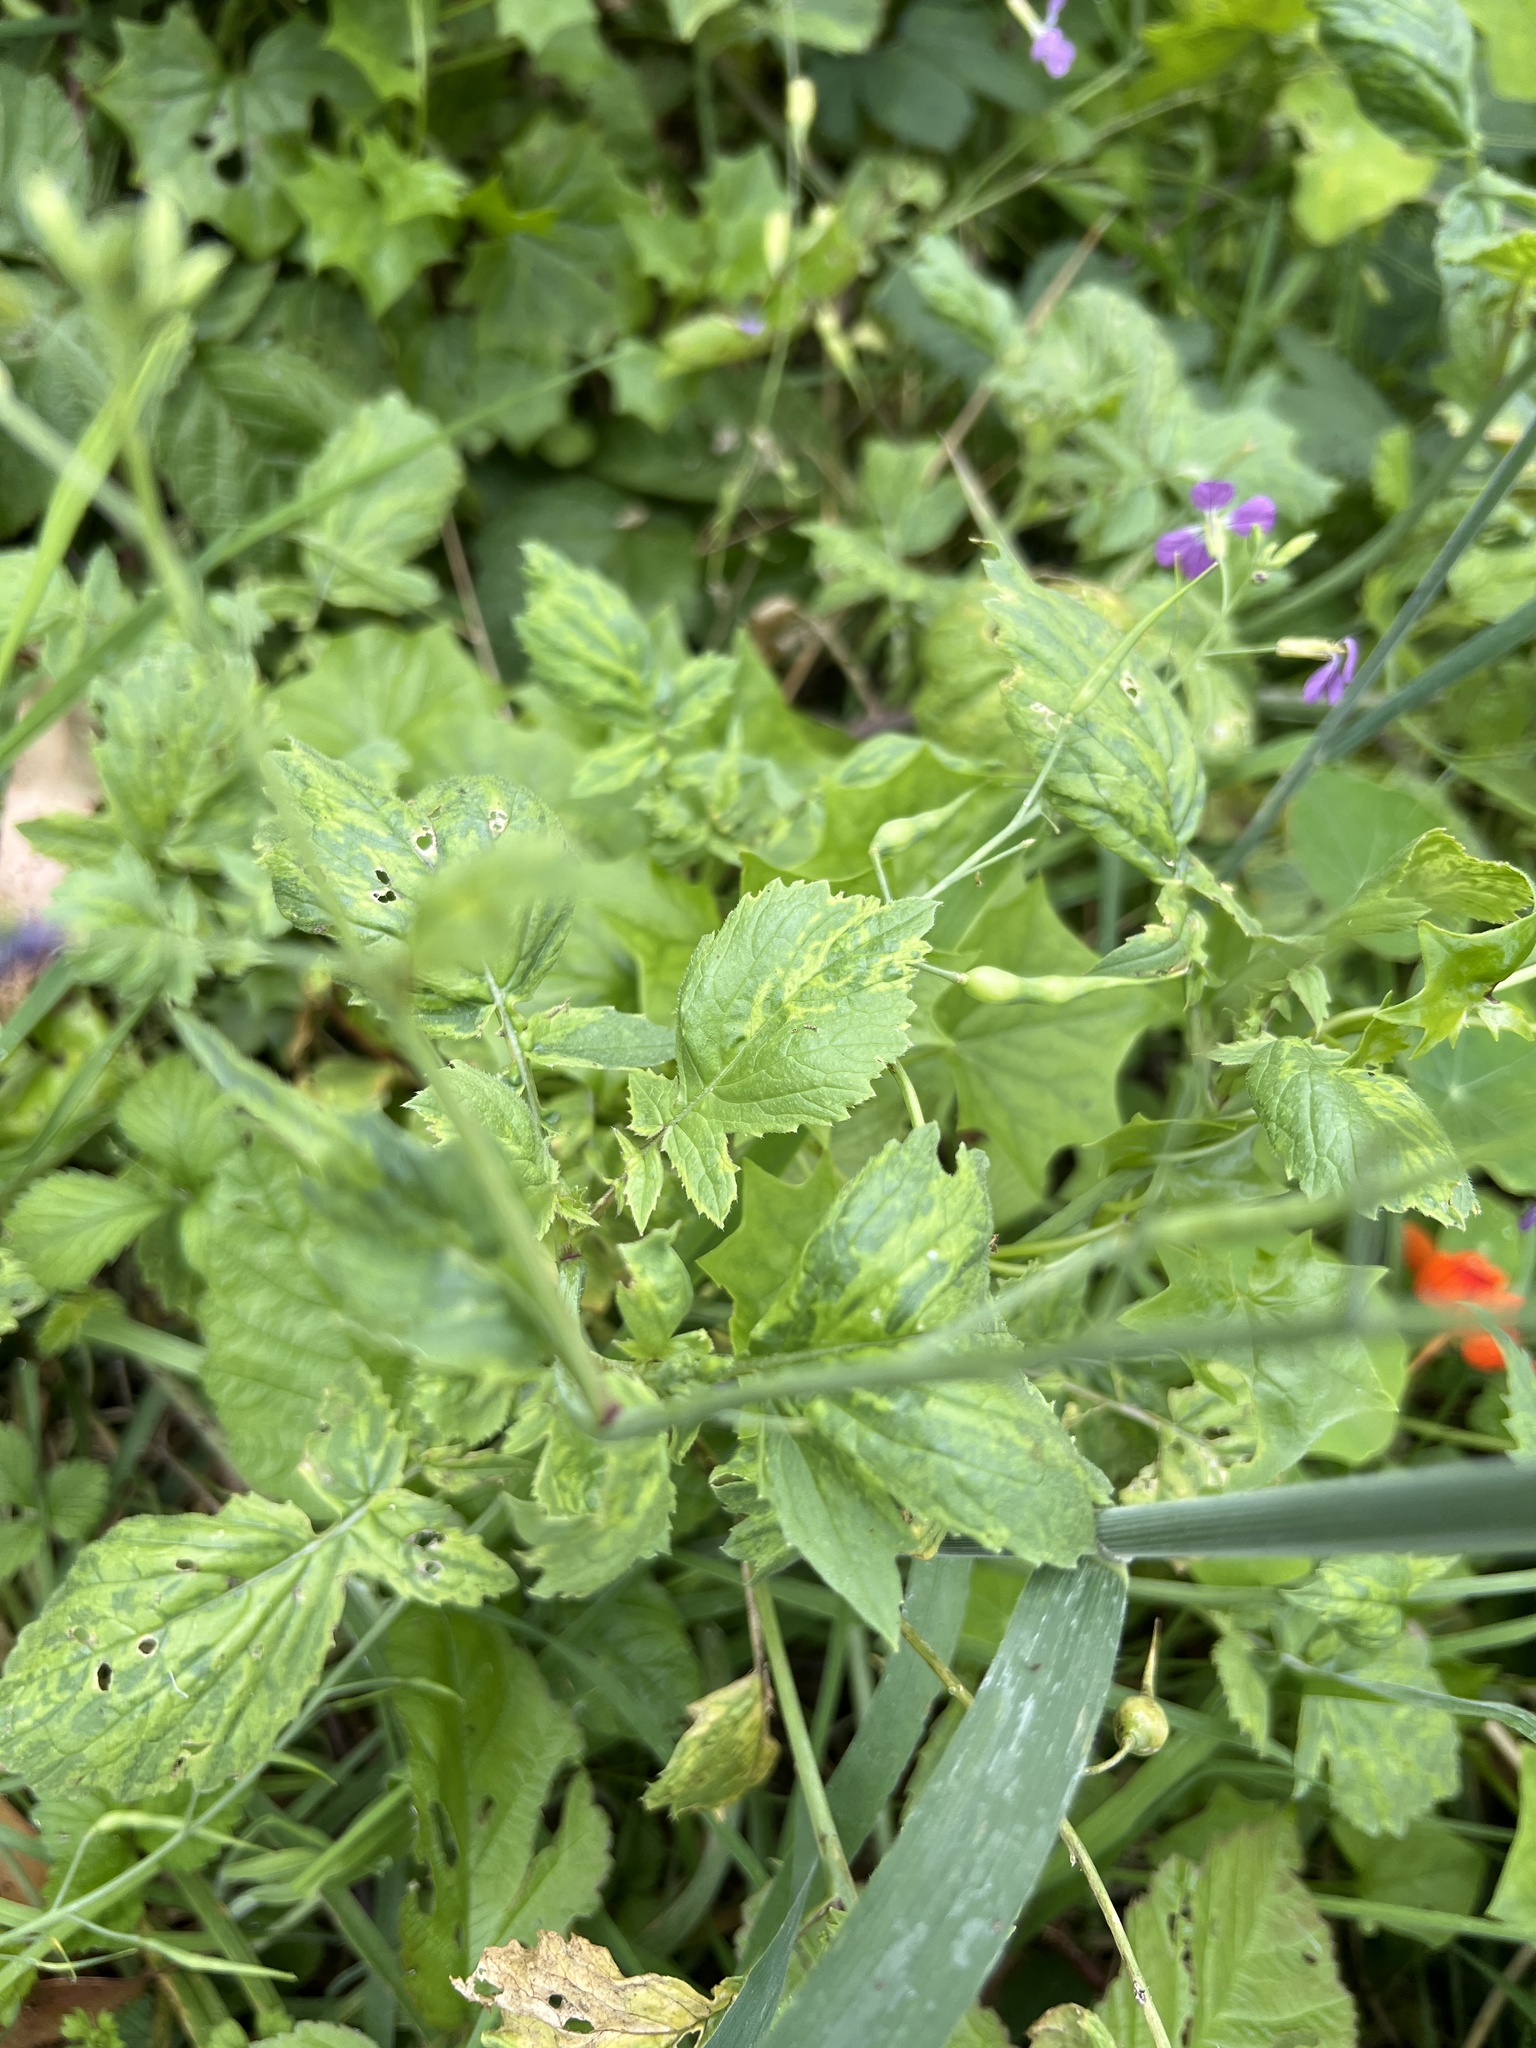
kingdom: Plantae
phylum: Tracheophyta
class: Magnoliopsida
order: Brassicales
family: Brassicaceae
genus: Raphanus
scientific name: Raphanus sativus
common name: Cultivated radish
